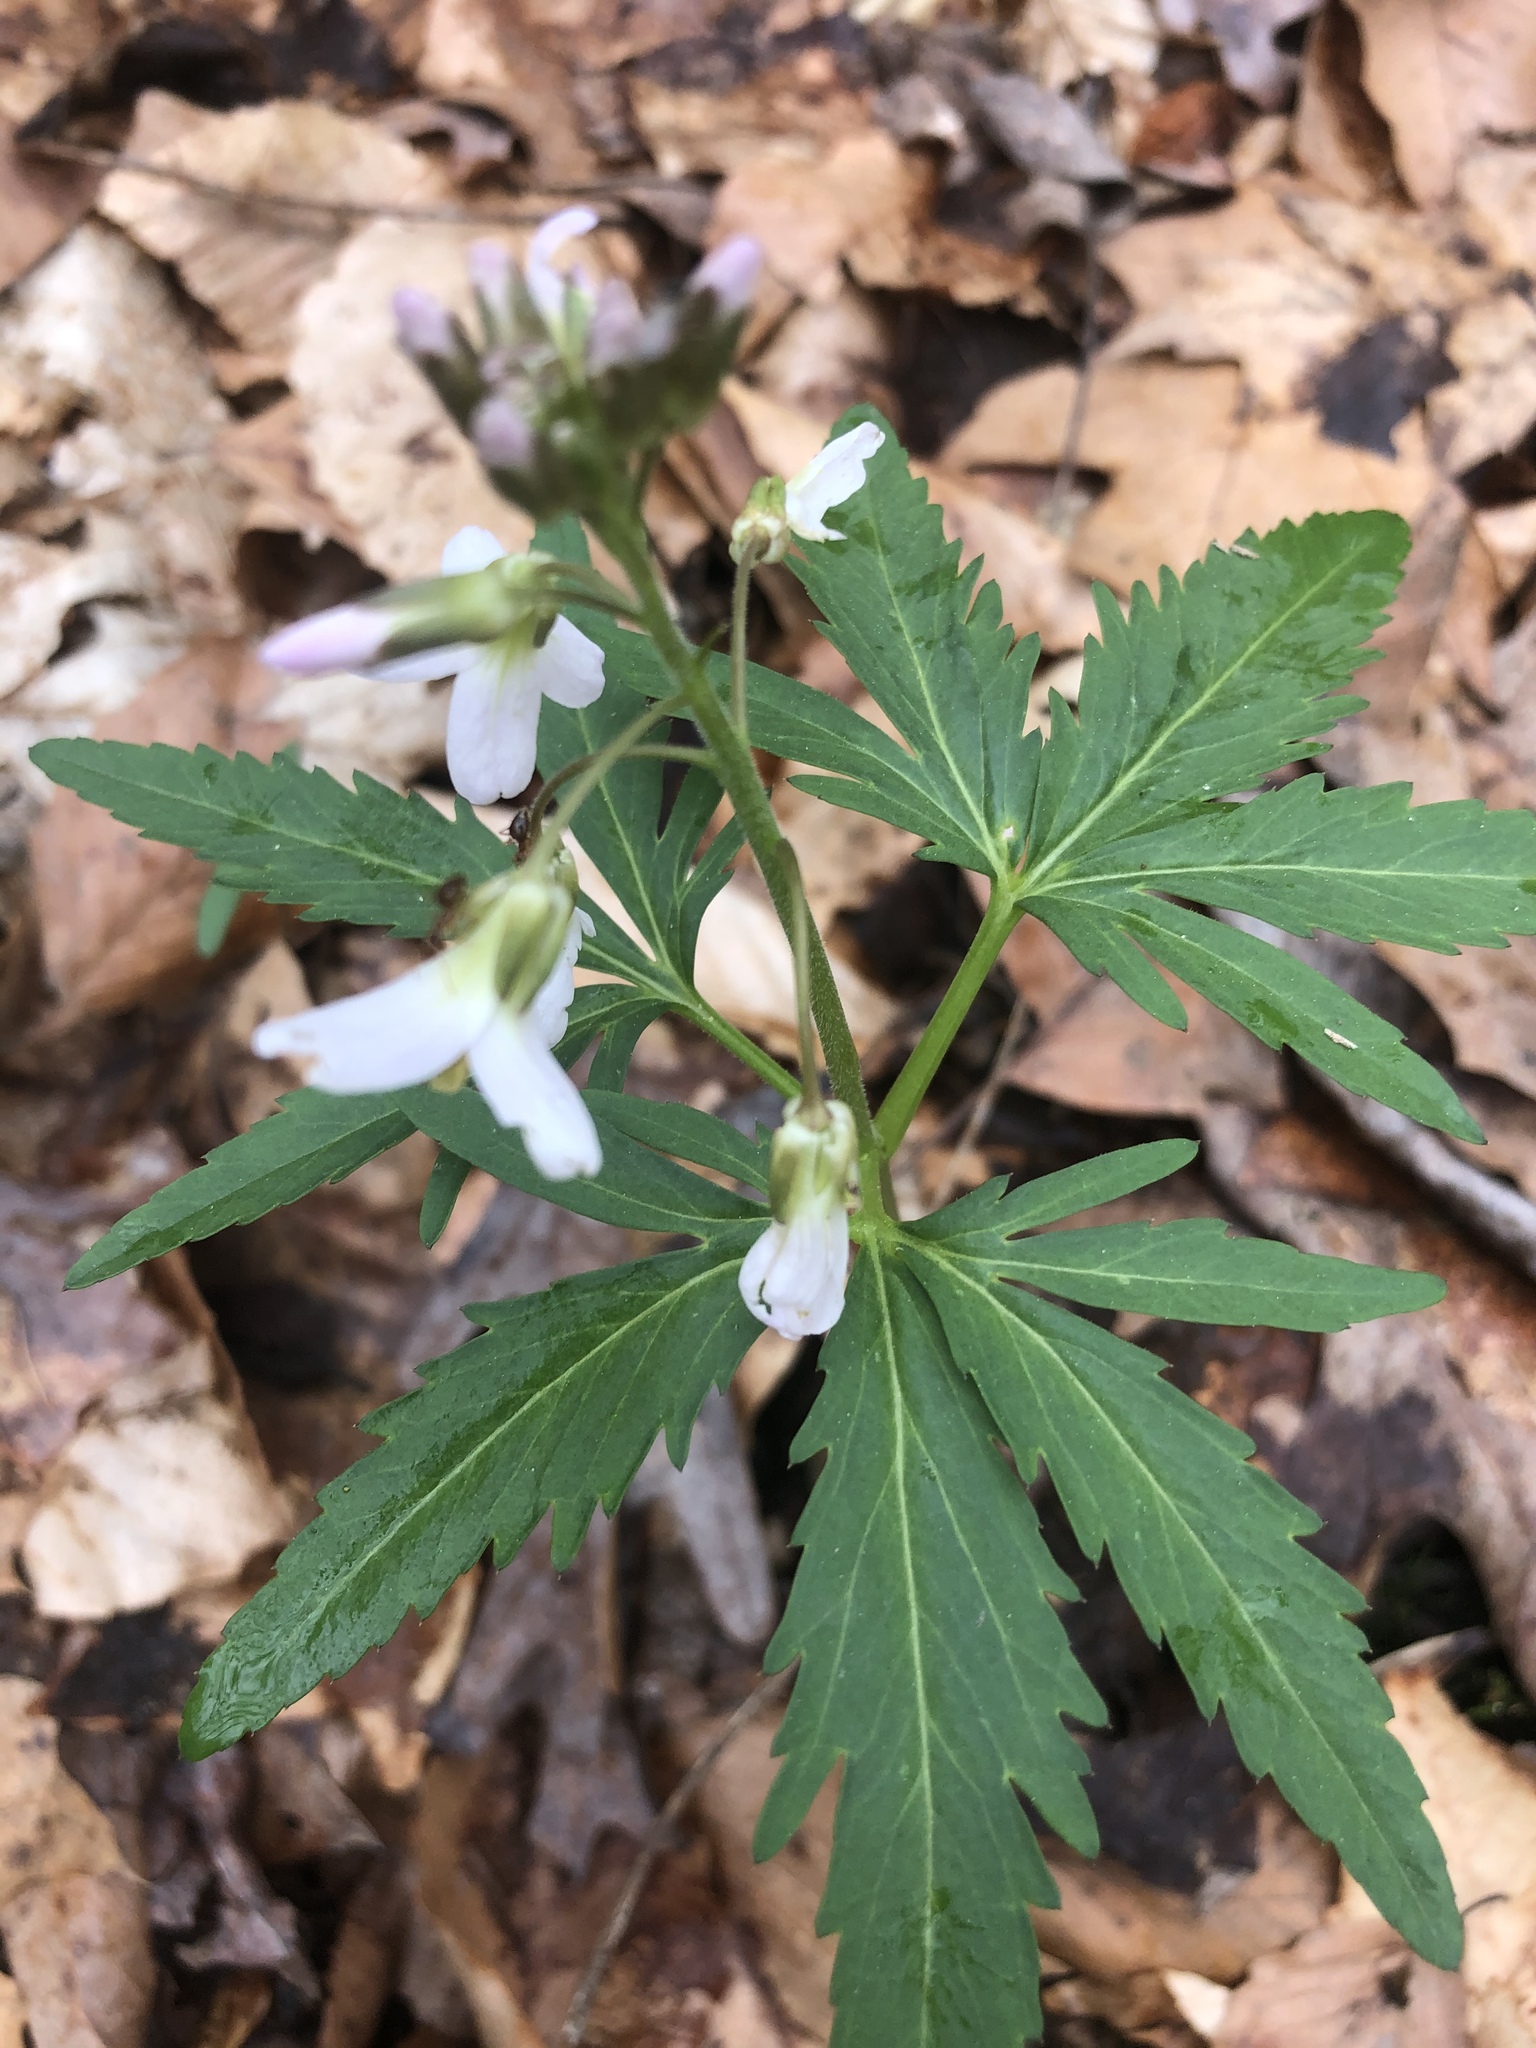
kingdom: Plantae
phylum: Tracheophyta
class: Magnoliopsida
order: Brassicales
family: Brassicaceae
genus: Cardamine
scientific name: Cardamine concatenata
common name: Cut-leaf toothcup
